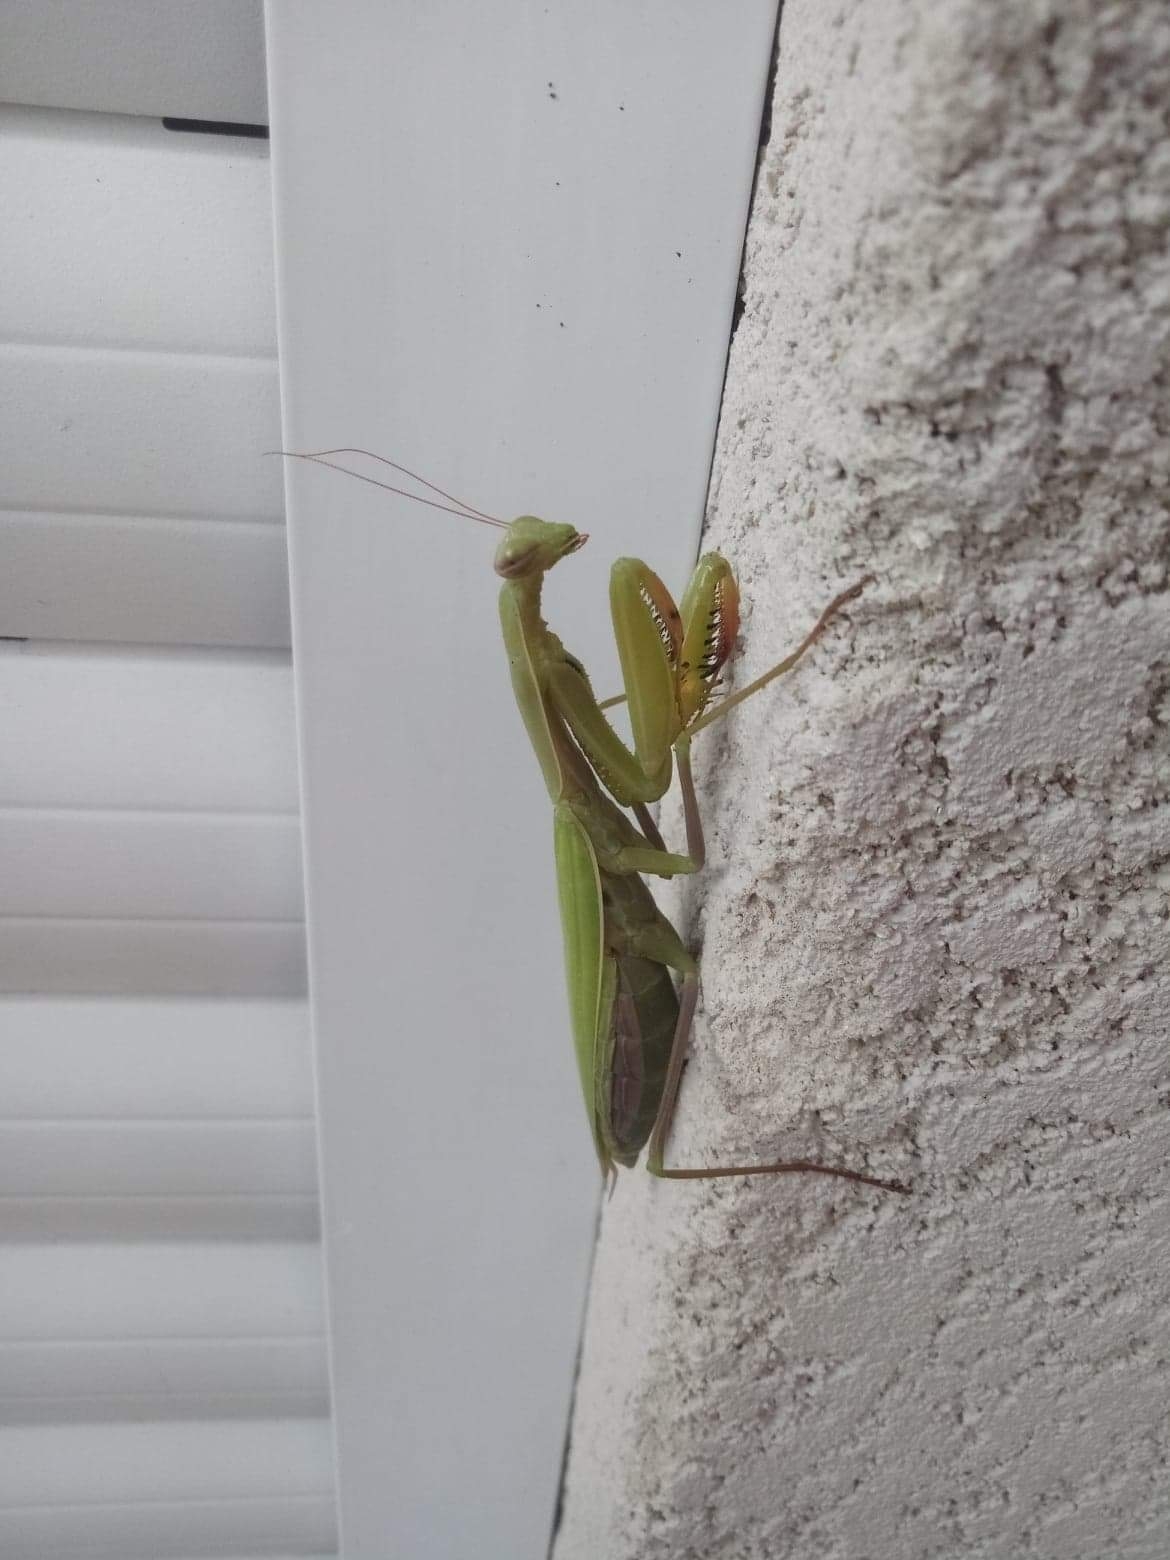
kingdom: Animalia
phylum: Arthropoda
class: Insecta
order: Mantodea
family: Mantidae
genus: Mantis
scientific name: Mantis religiosa
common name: Praying mantis
